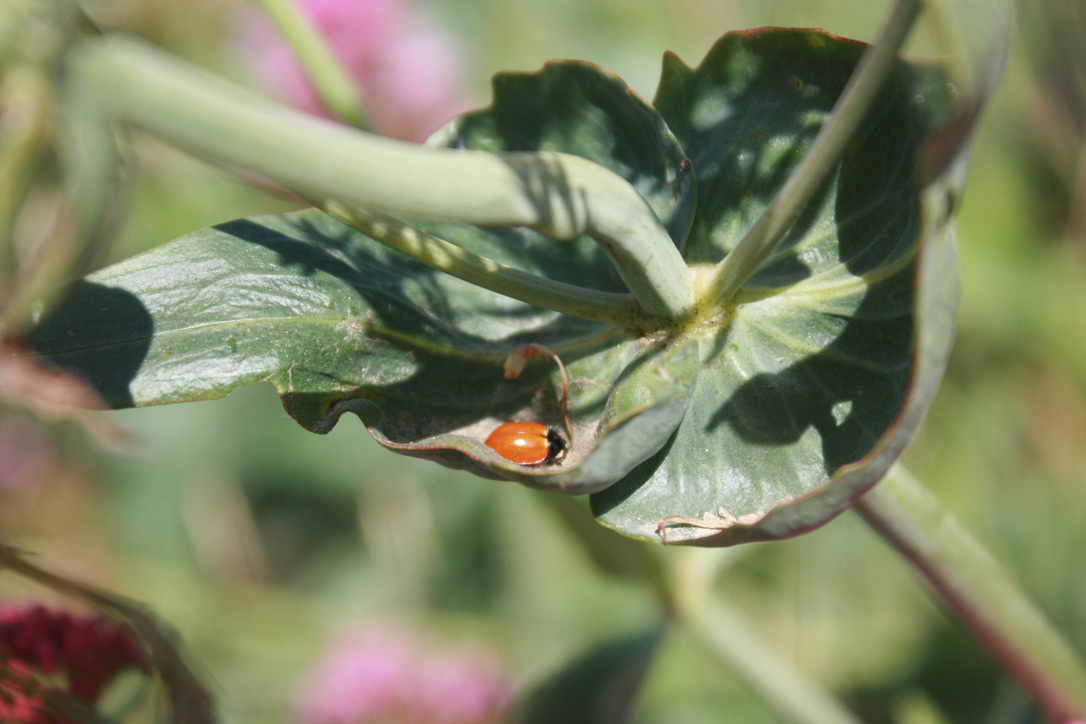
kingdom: Animalia
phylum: Arthropoda
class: Insecta
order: Coleoptera
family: Coccinellidae
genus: Hippodamia
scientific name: Hippodamia quinquesignata
